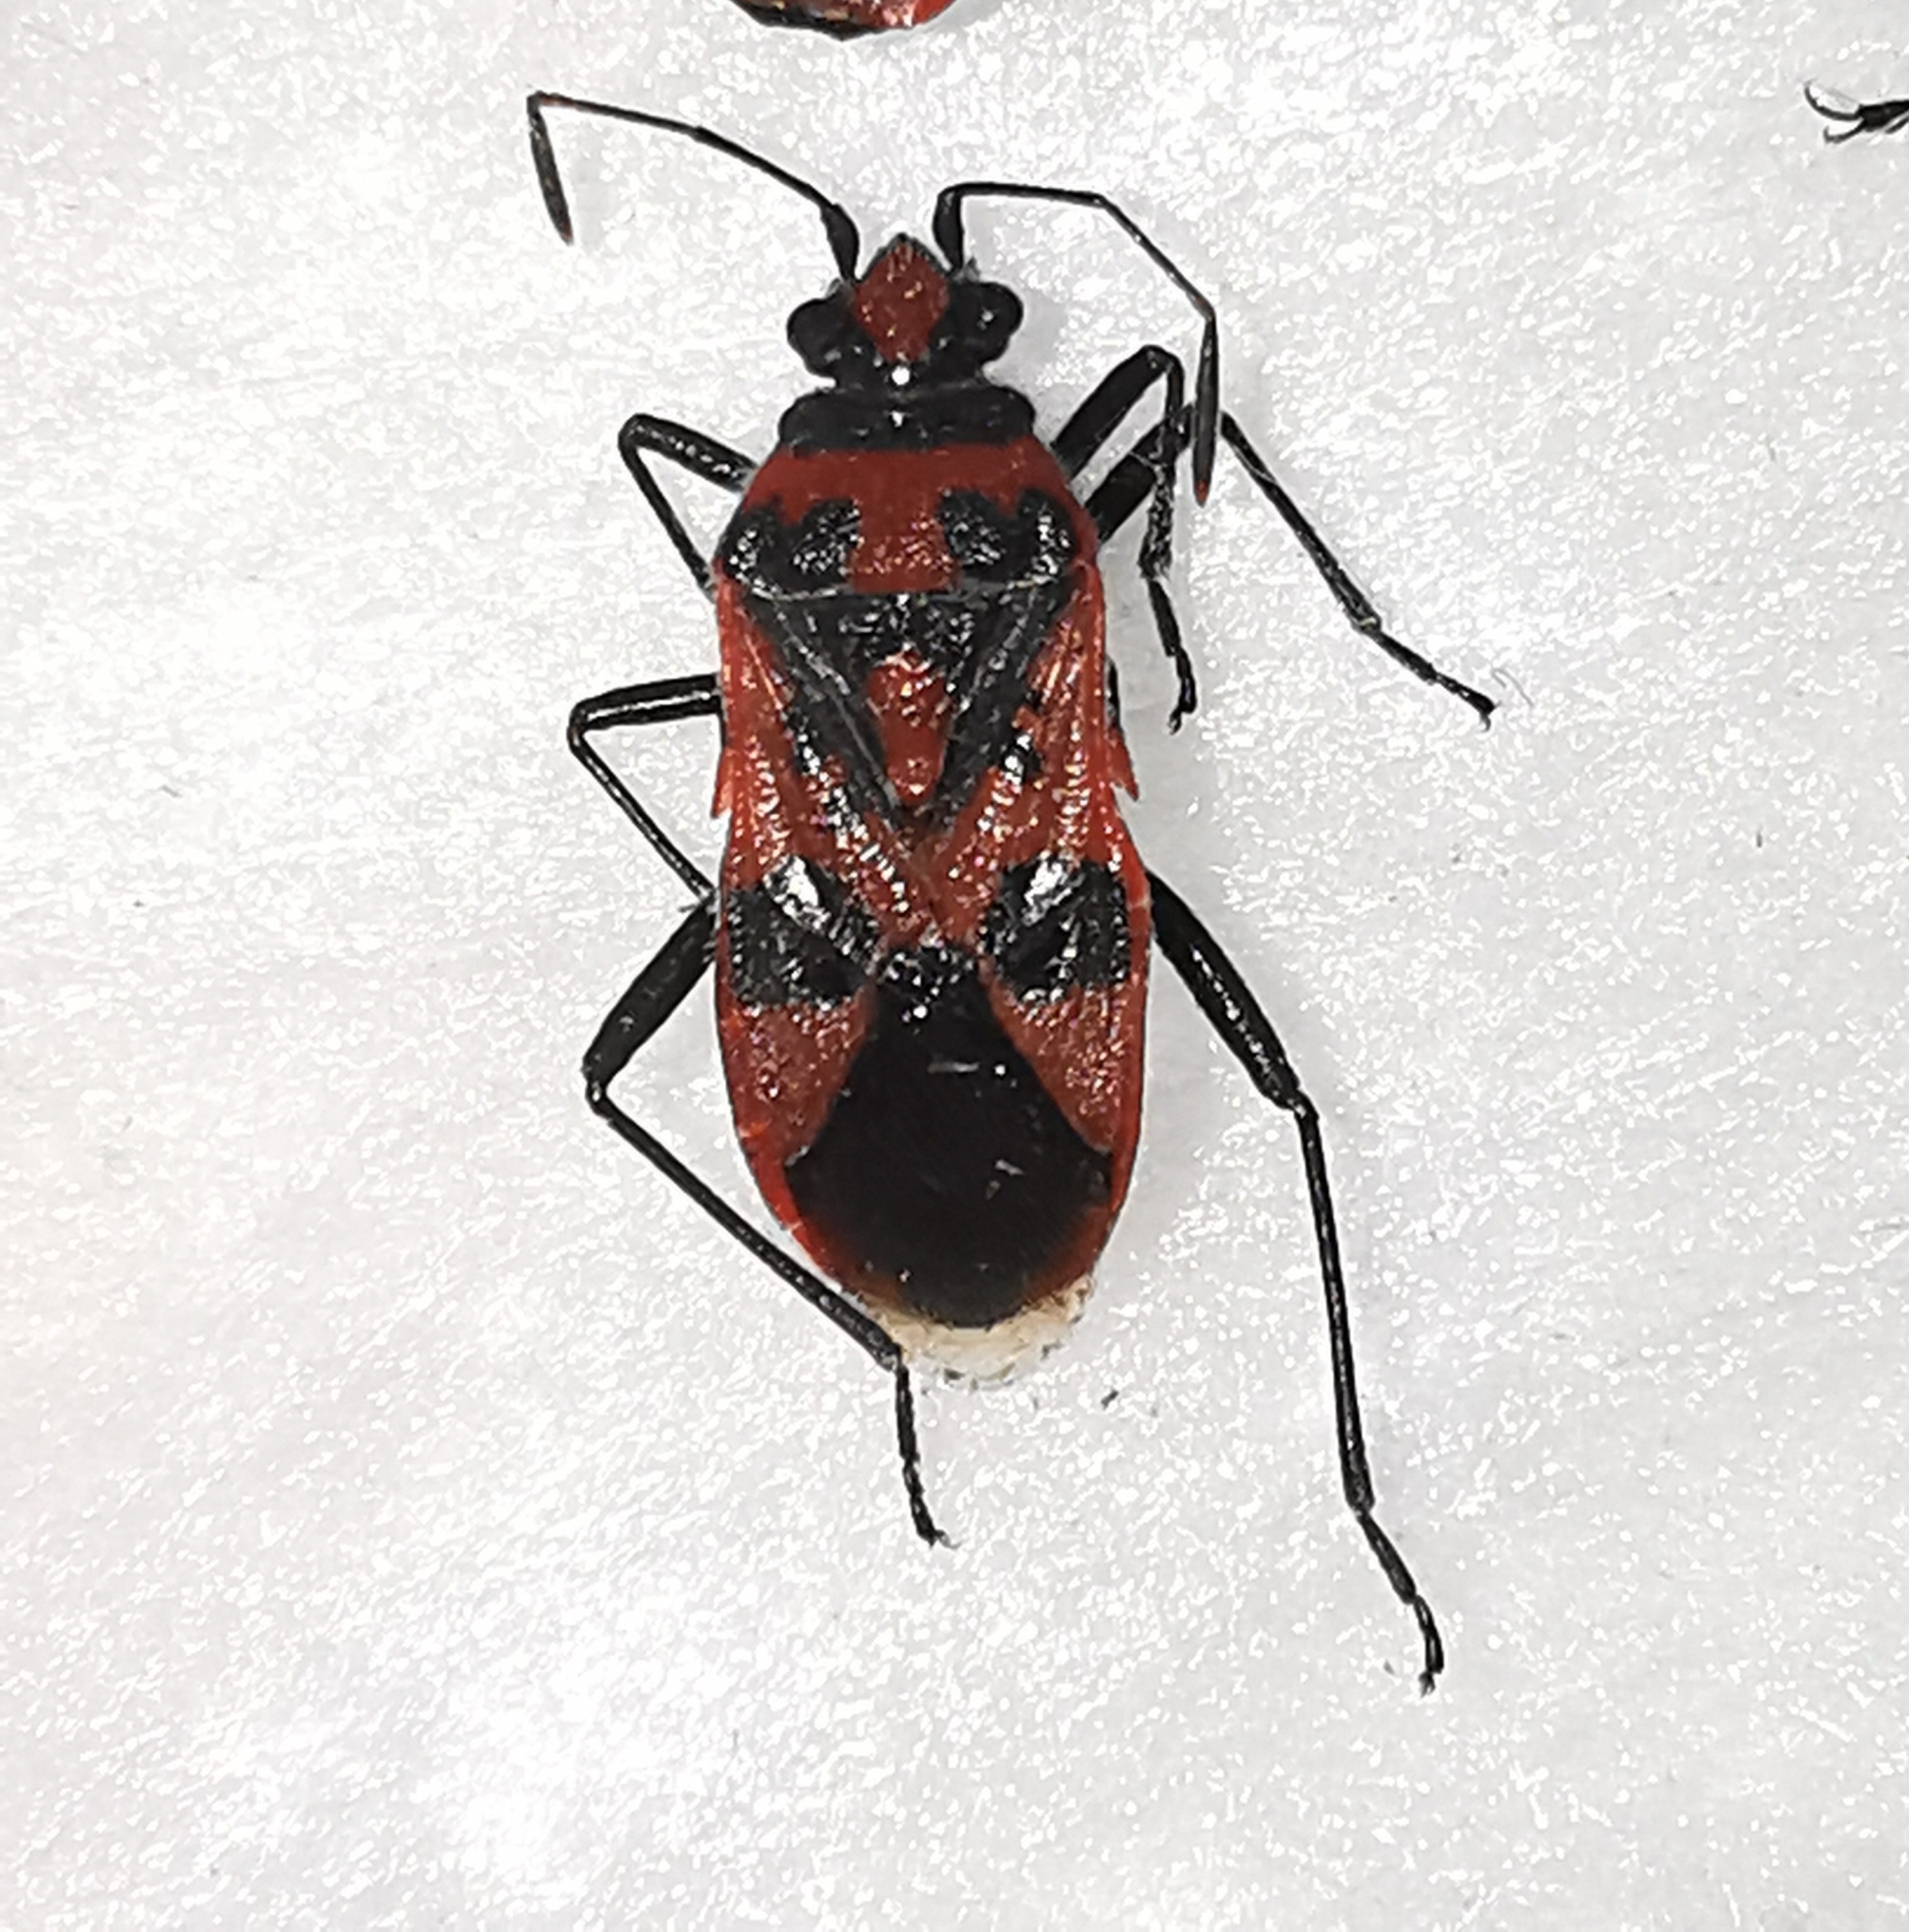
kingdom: Animalia
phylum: Arthropoda
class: Insecta
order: Hemiptera
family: Rhopalidae
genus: Corizus
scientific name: Corizus hyoscyami
